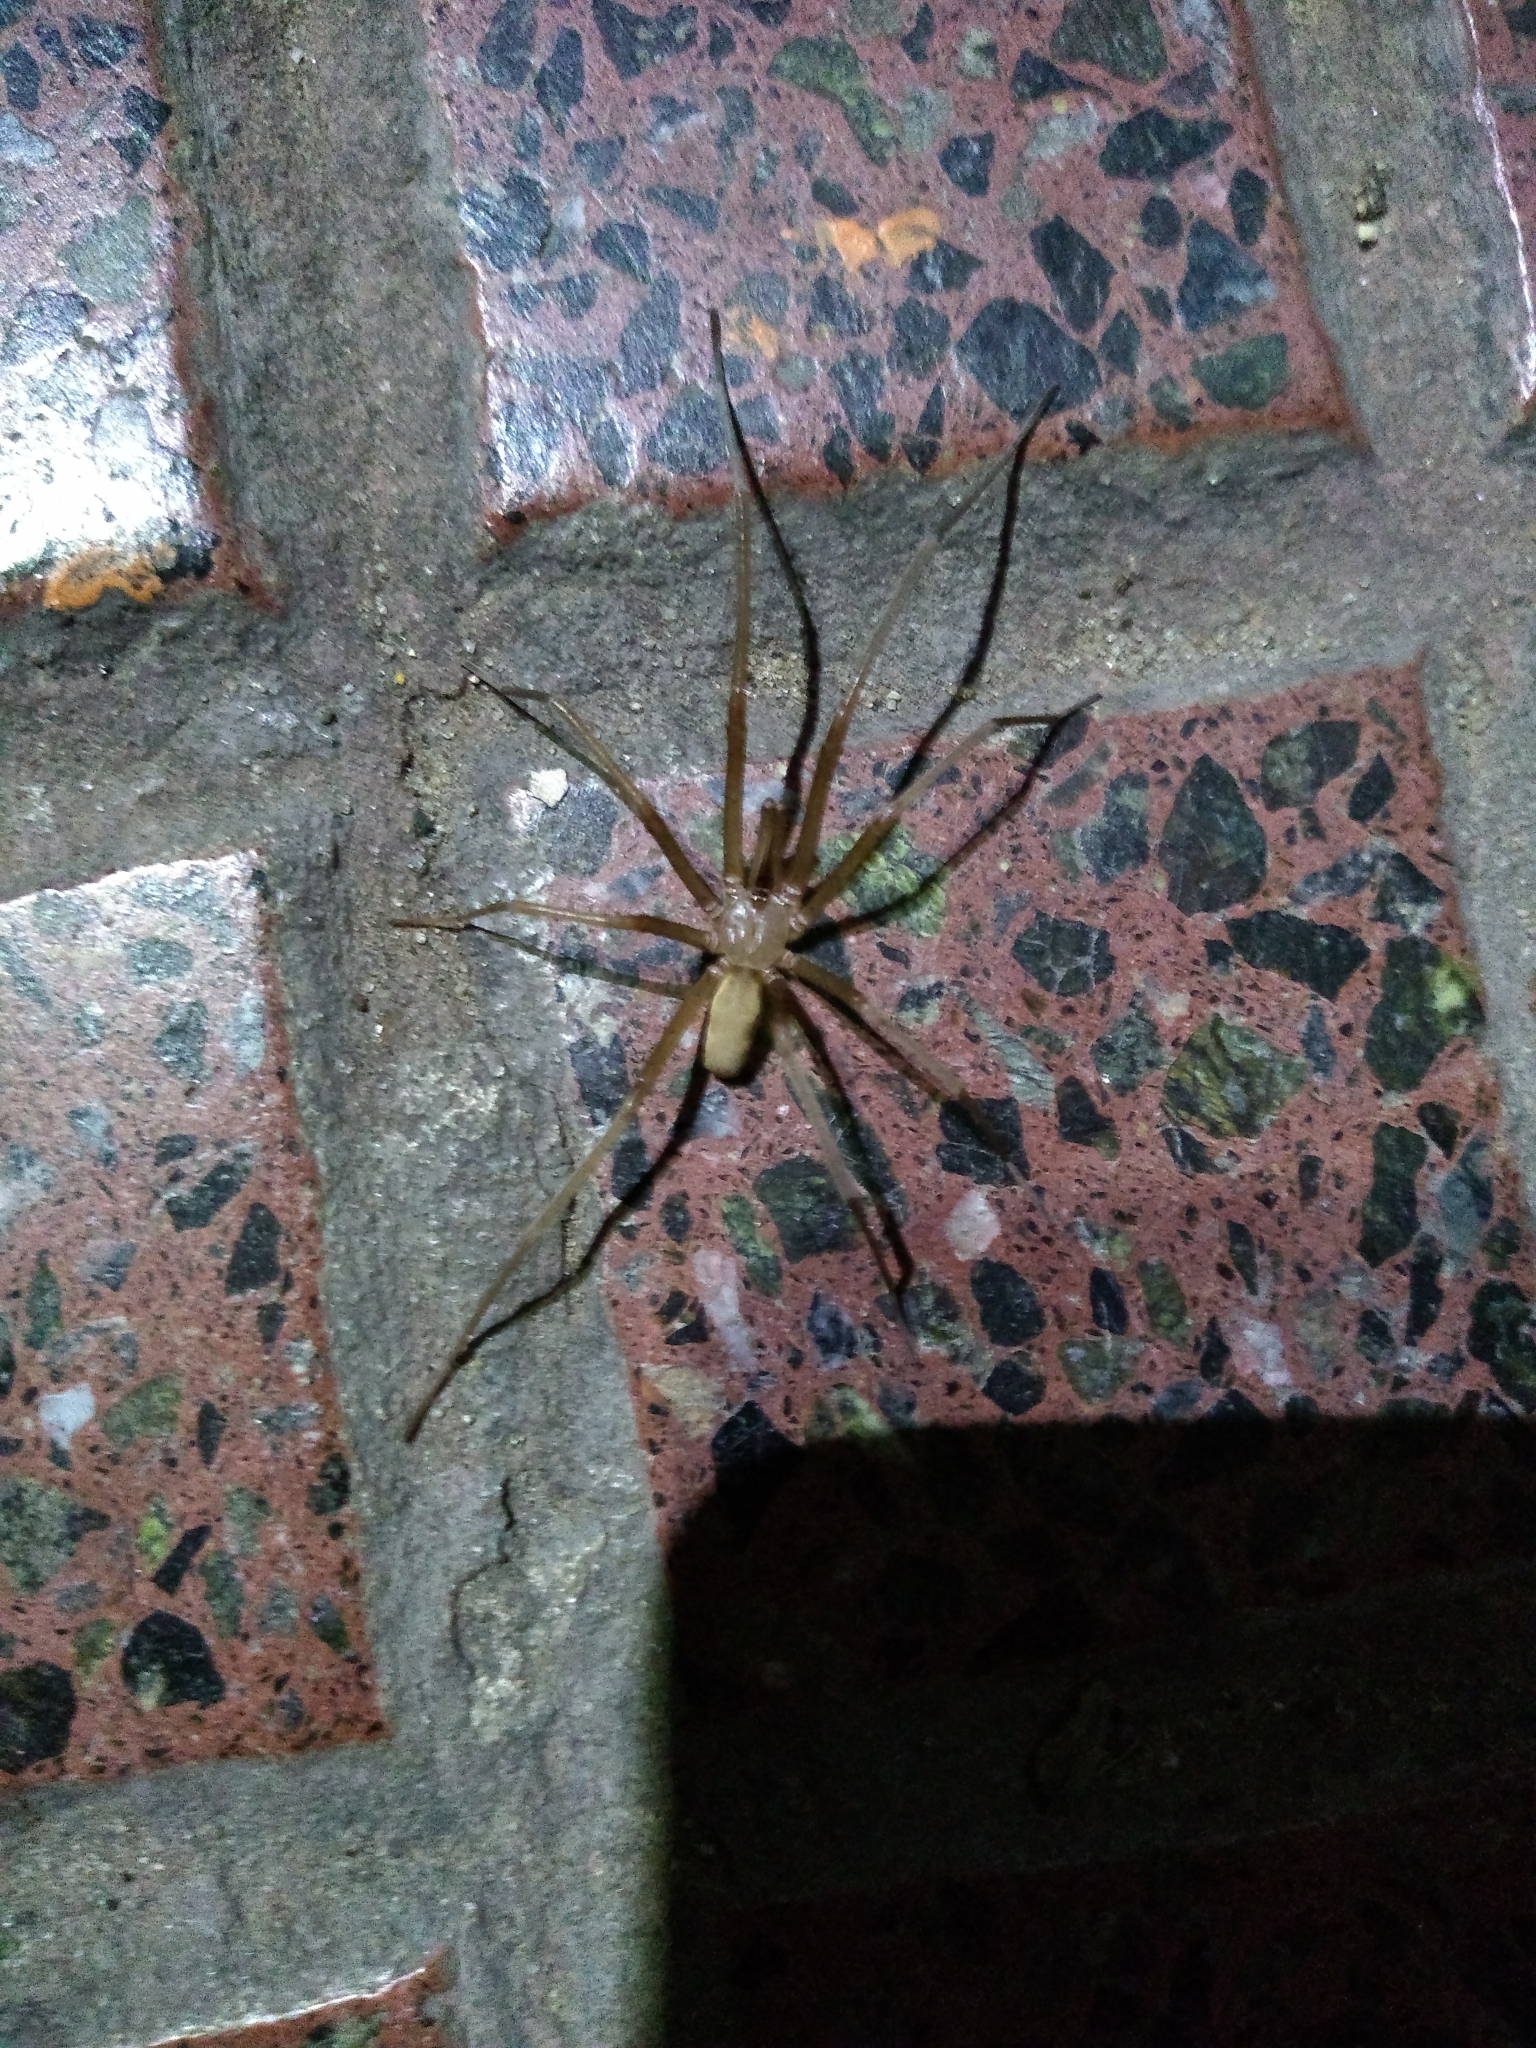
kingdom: Animalia
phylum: Arthropoda
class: Arachnida
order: Araneae
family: Filistatidae
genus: Kukulcania
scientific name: Kukulcania hibernalis
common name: Crevice weaver
